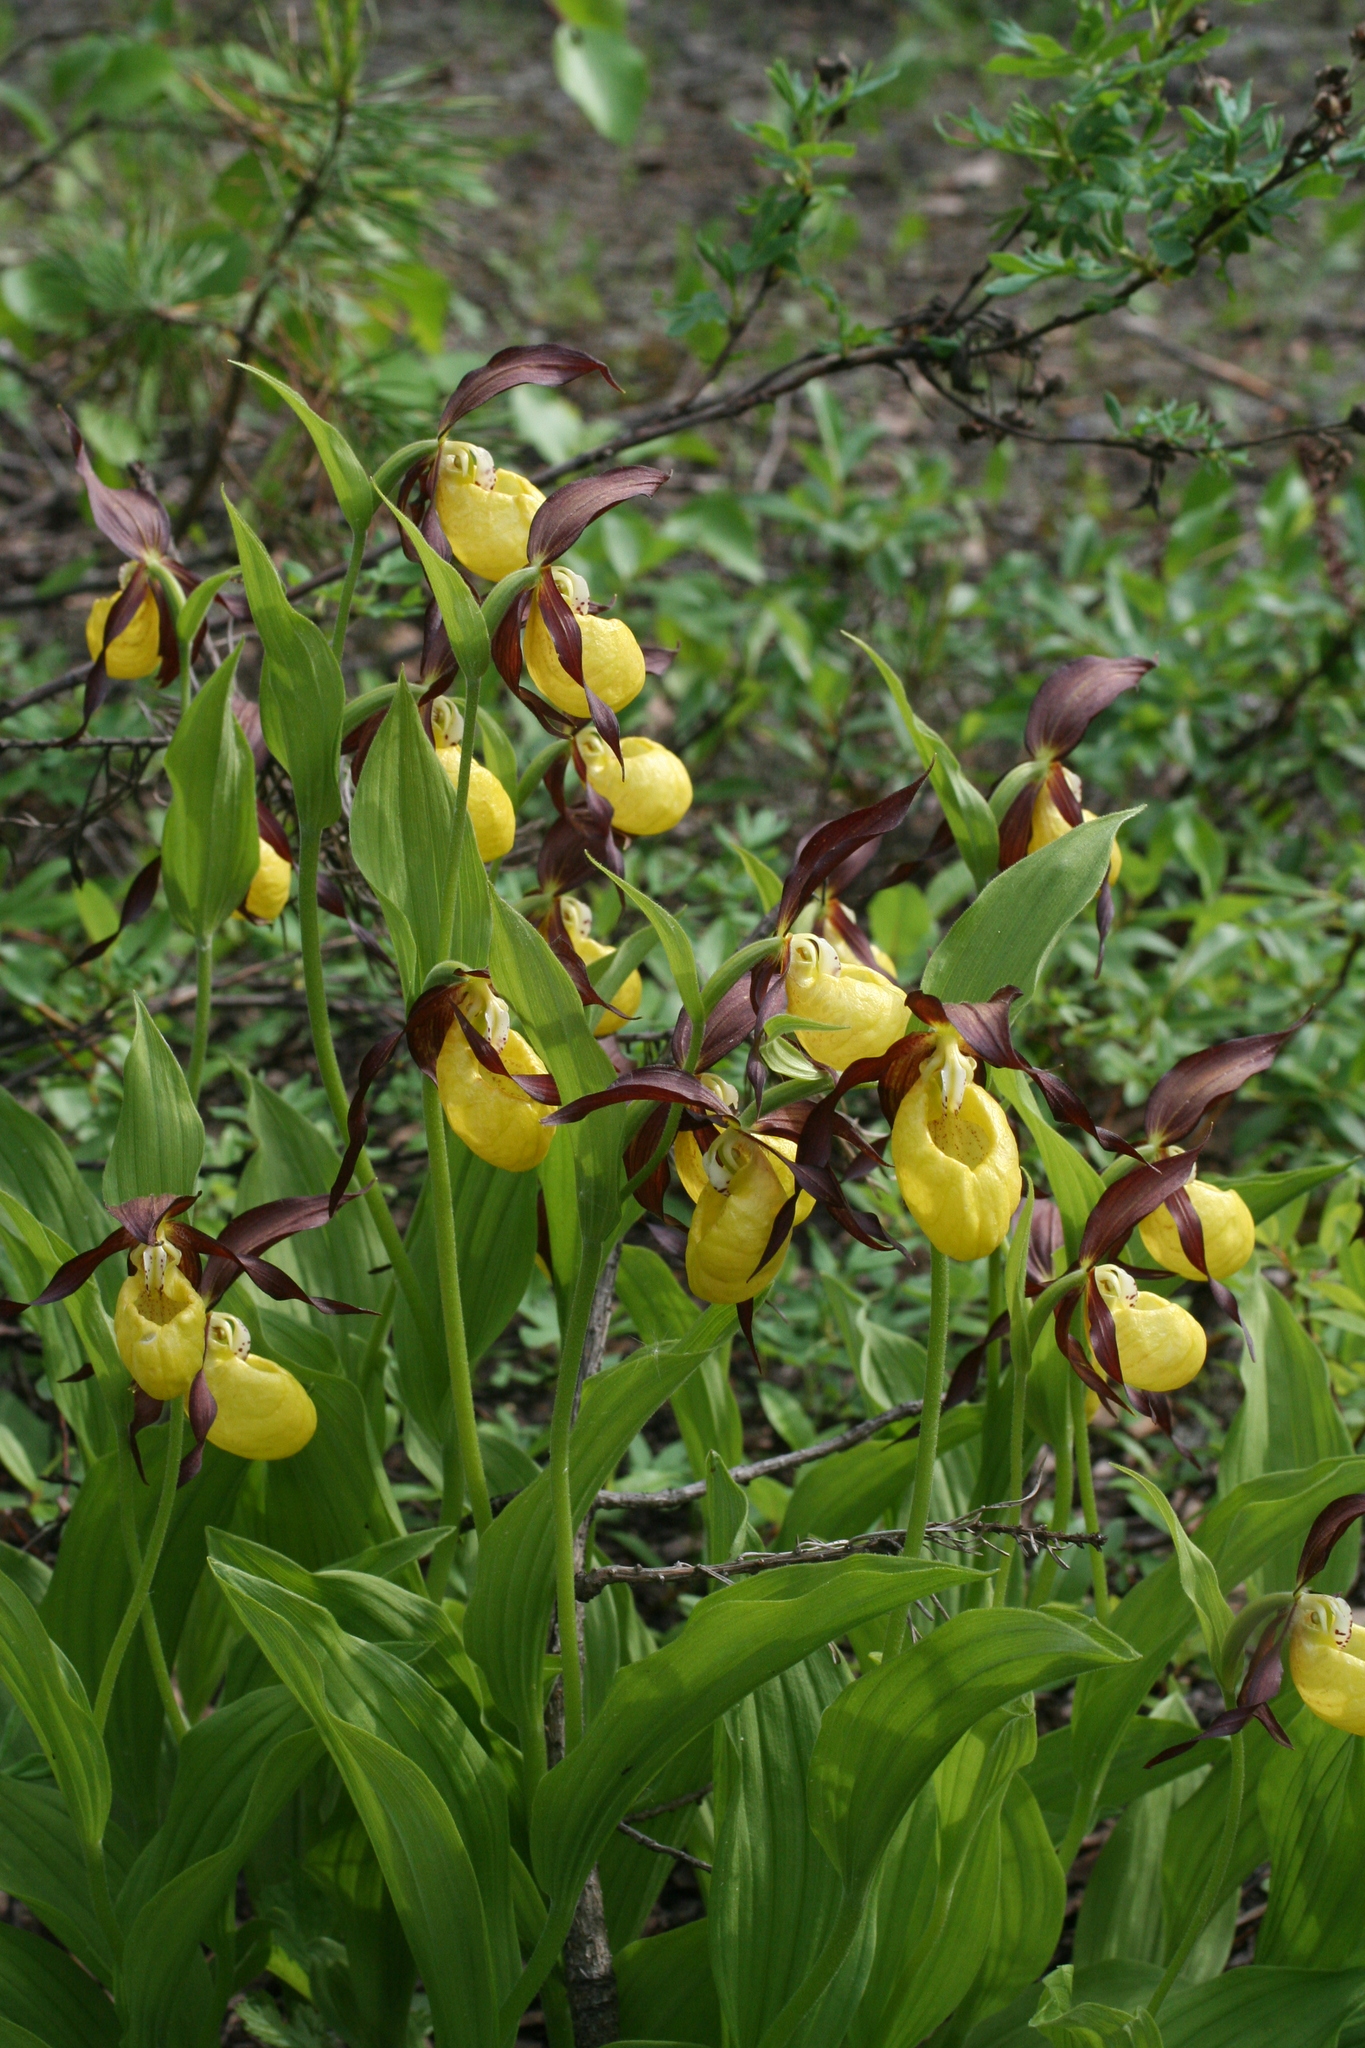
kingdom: Plantae
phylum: Tracheophyta
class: Liliopsida
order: Asparagales
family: Orchidaceae
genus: Cypripedium
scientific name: Cypripedium calceolus
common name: Lady's-slipper
